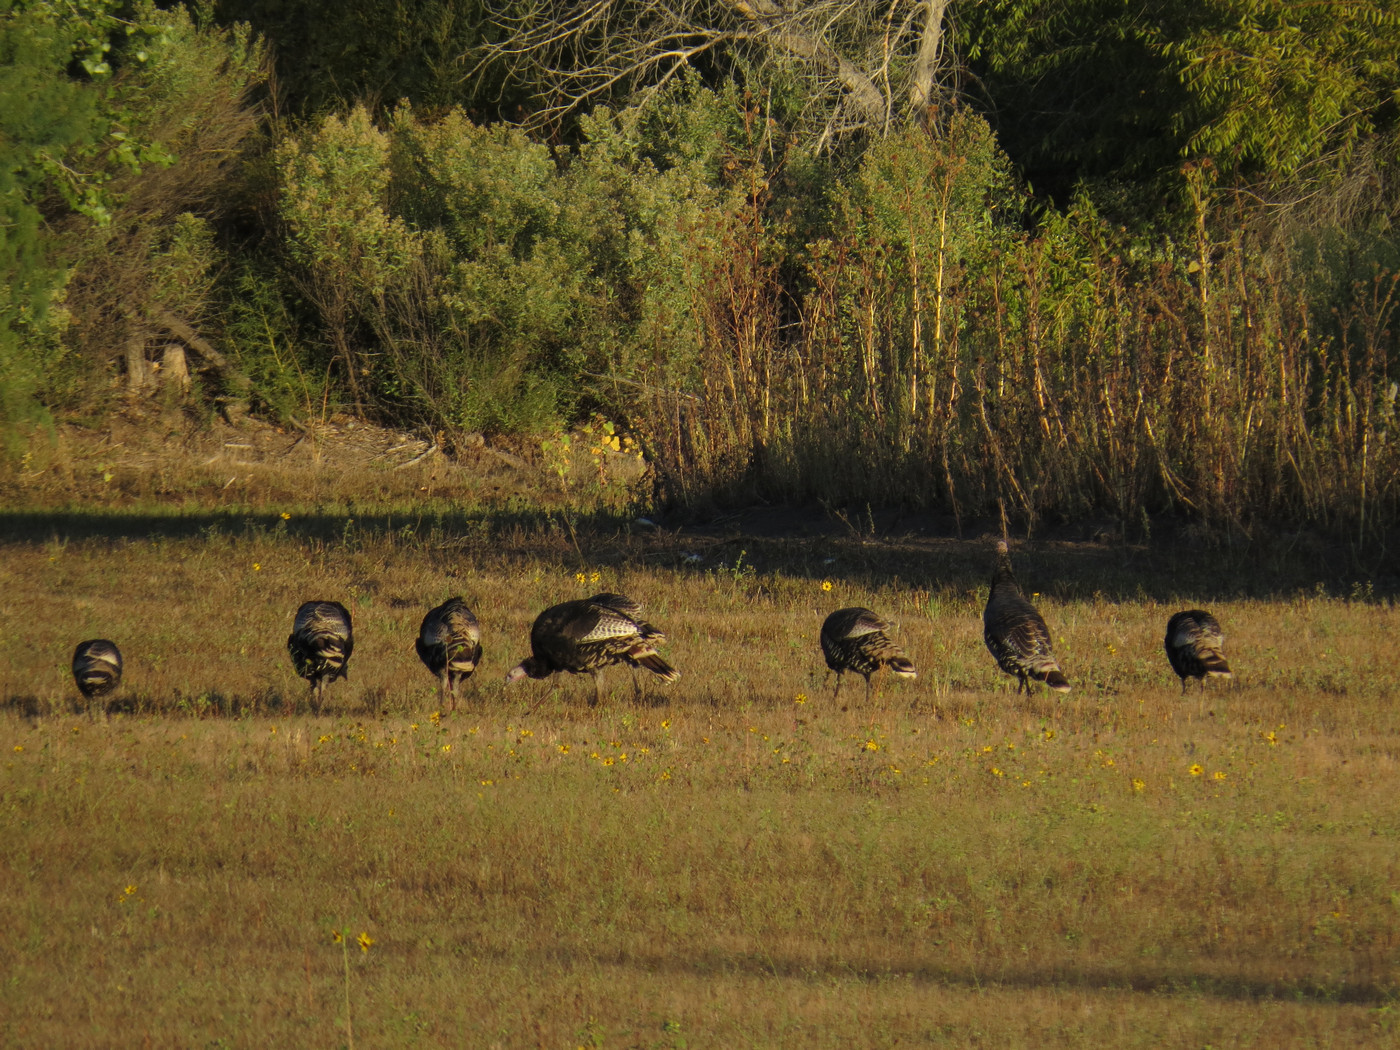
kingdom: Animalia
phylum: Chordata
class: Aves
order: Galliformes
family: Phasianidae
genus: Meleagris
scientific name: Meleagris gallopavo
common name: Wild turkey
